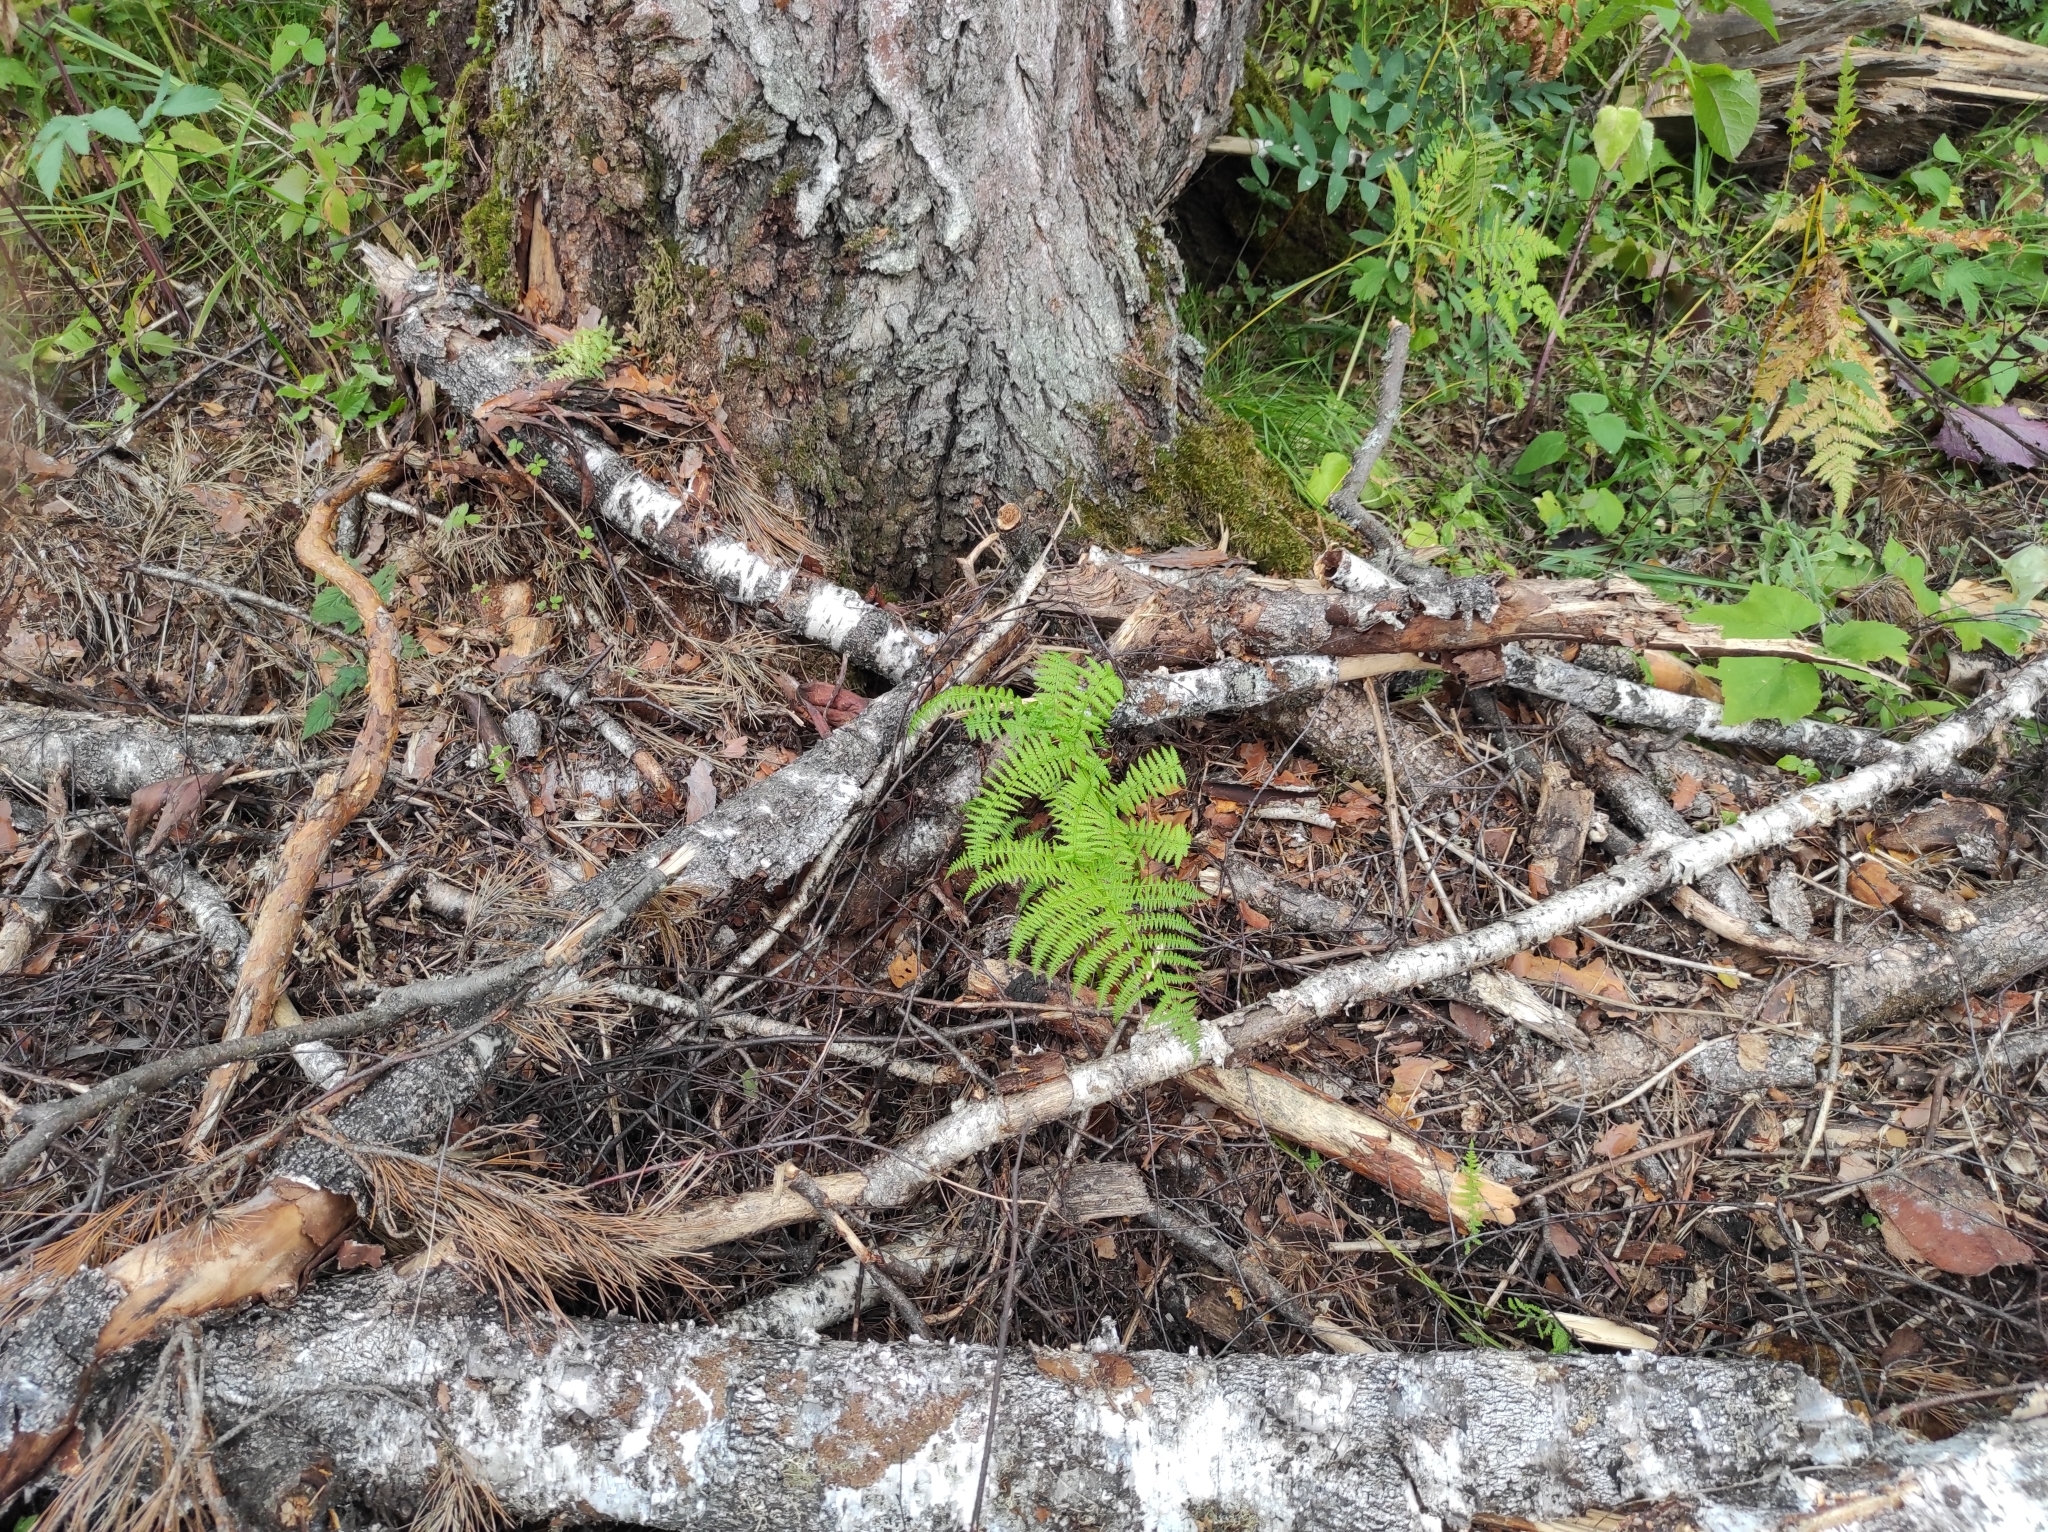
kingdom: Plantae
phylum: Tracheophyta
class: Polypodiopsida
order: Polypodiales
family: Athyriaceae
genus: Athyrium
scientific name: Athyrium filix-femina
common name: Lady fern
